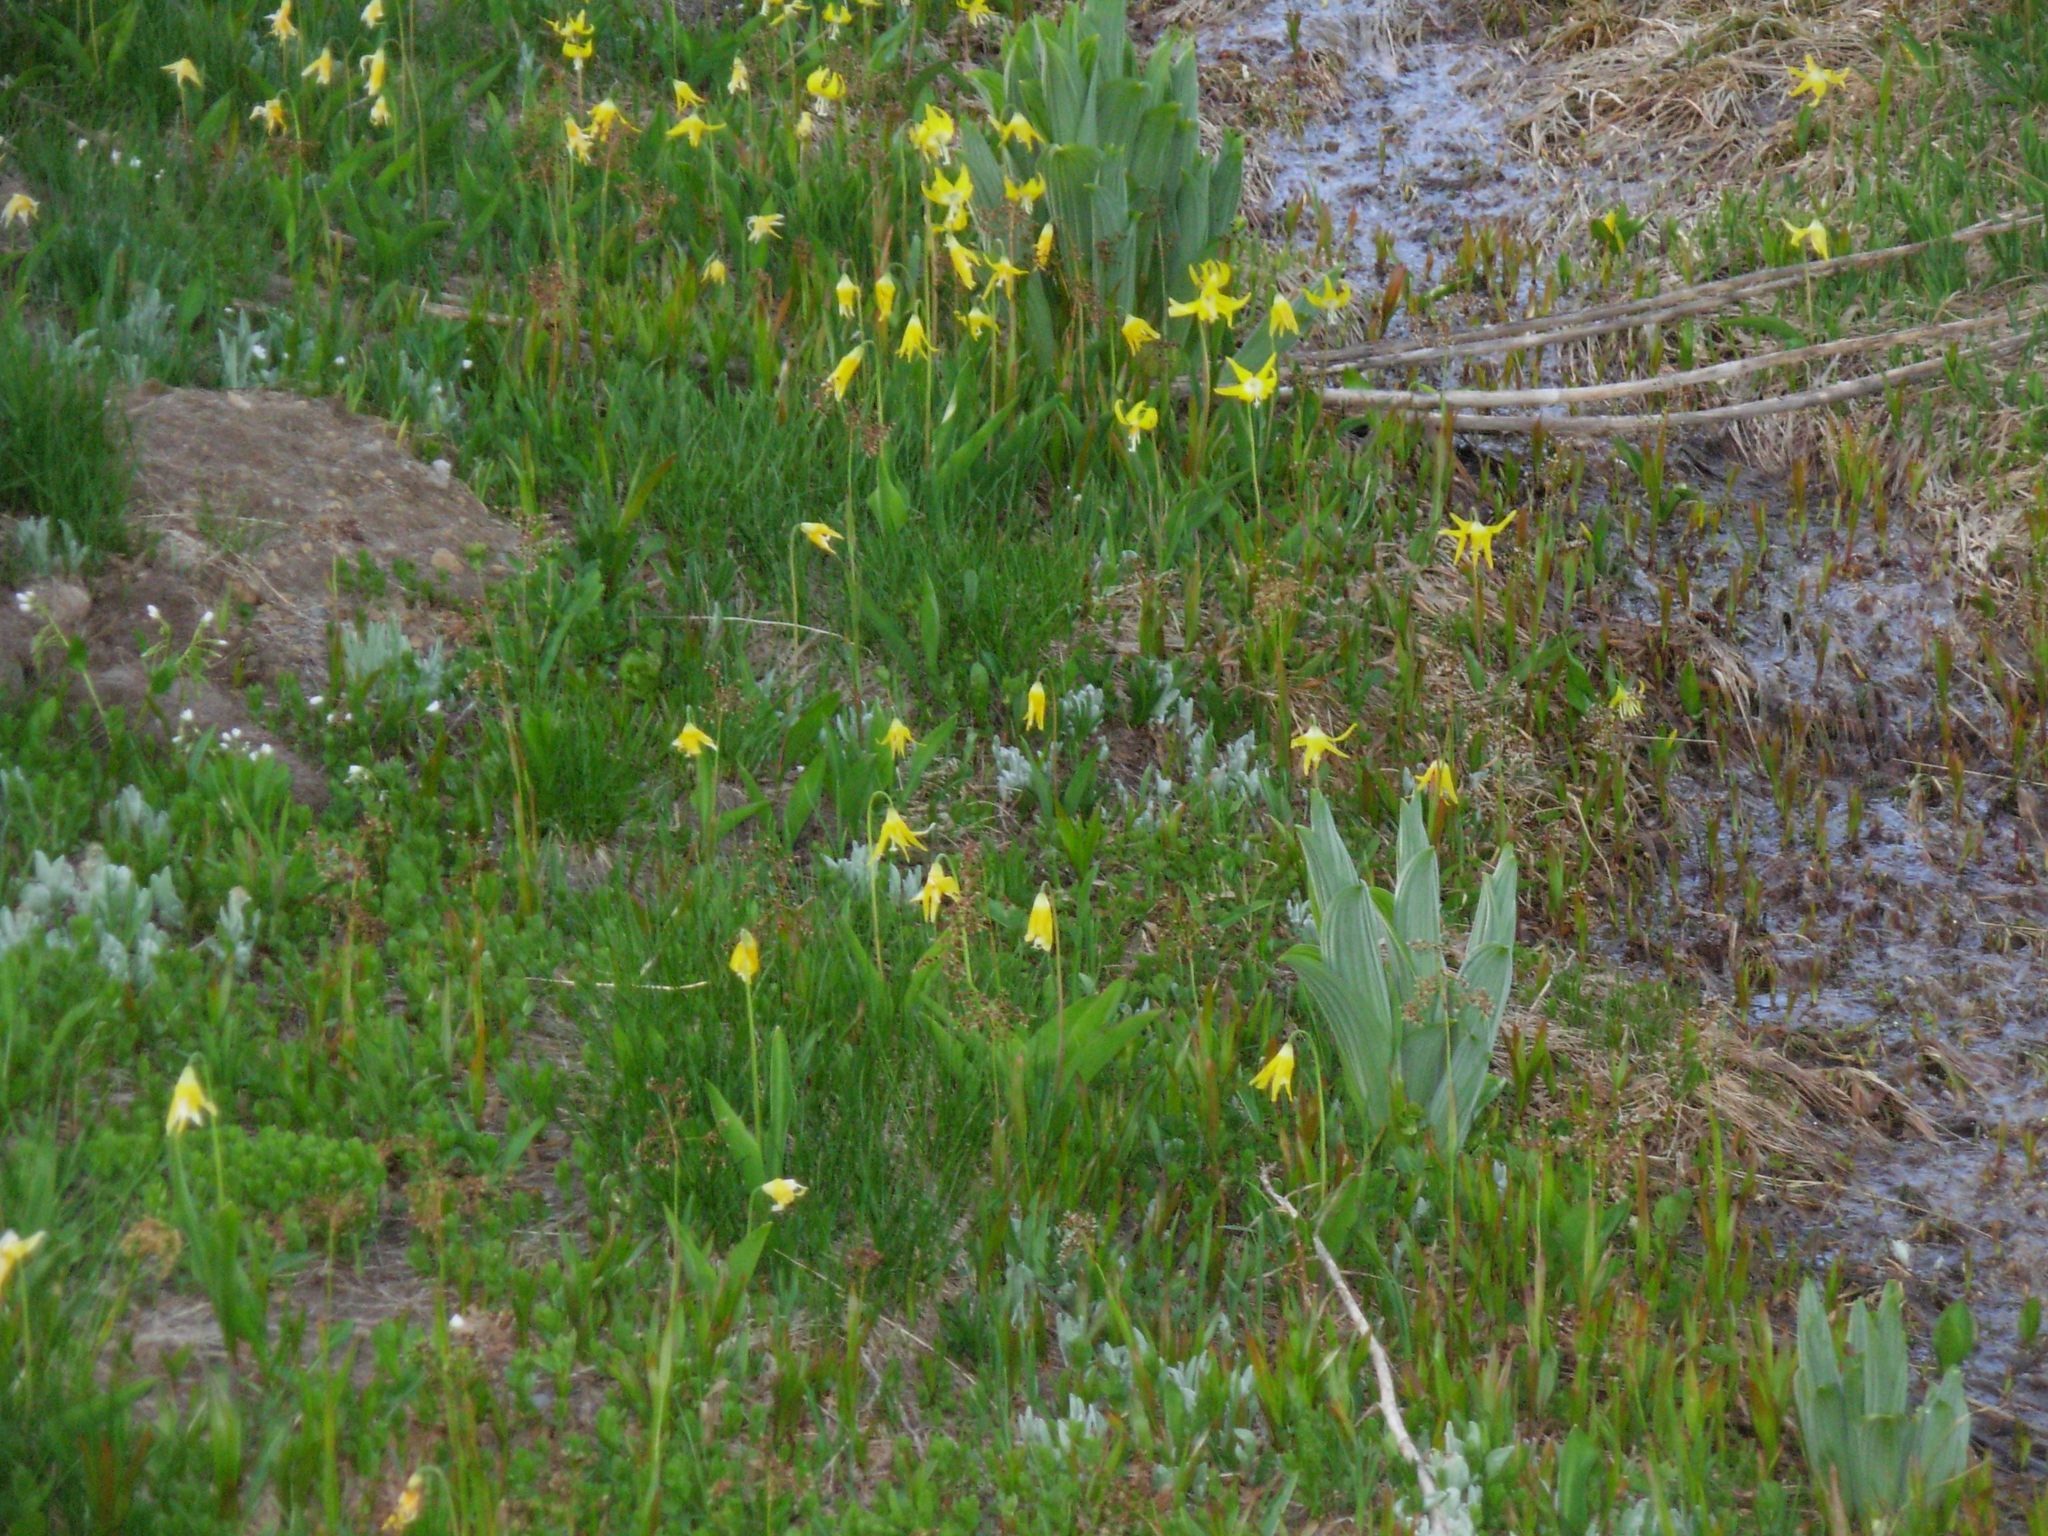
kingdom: Plantae
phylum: Tracheophyta
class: Liliopsida
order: Liliales
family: Liliaceae
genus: Erythronium
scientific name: Erythronium grandiflorum
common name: Avalanche-lily
